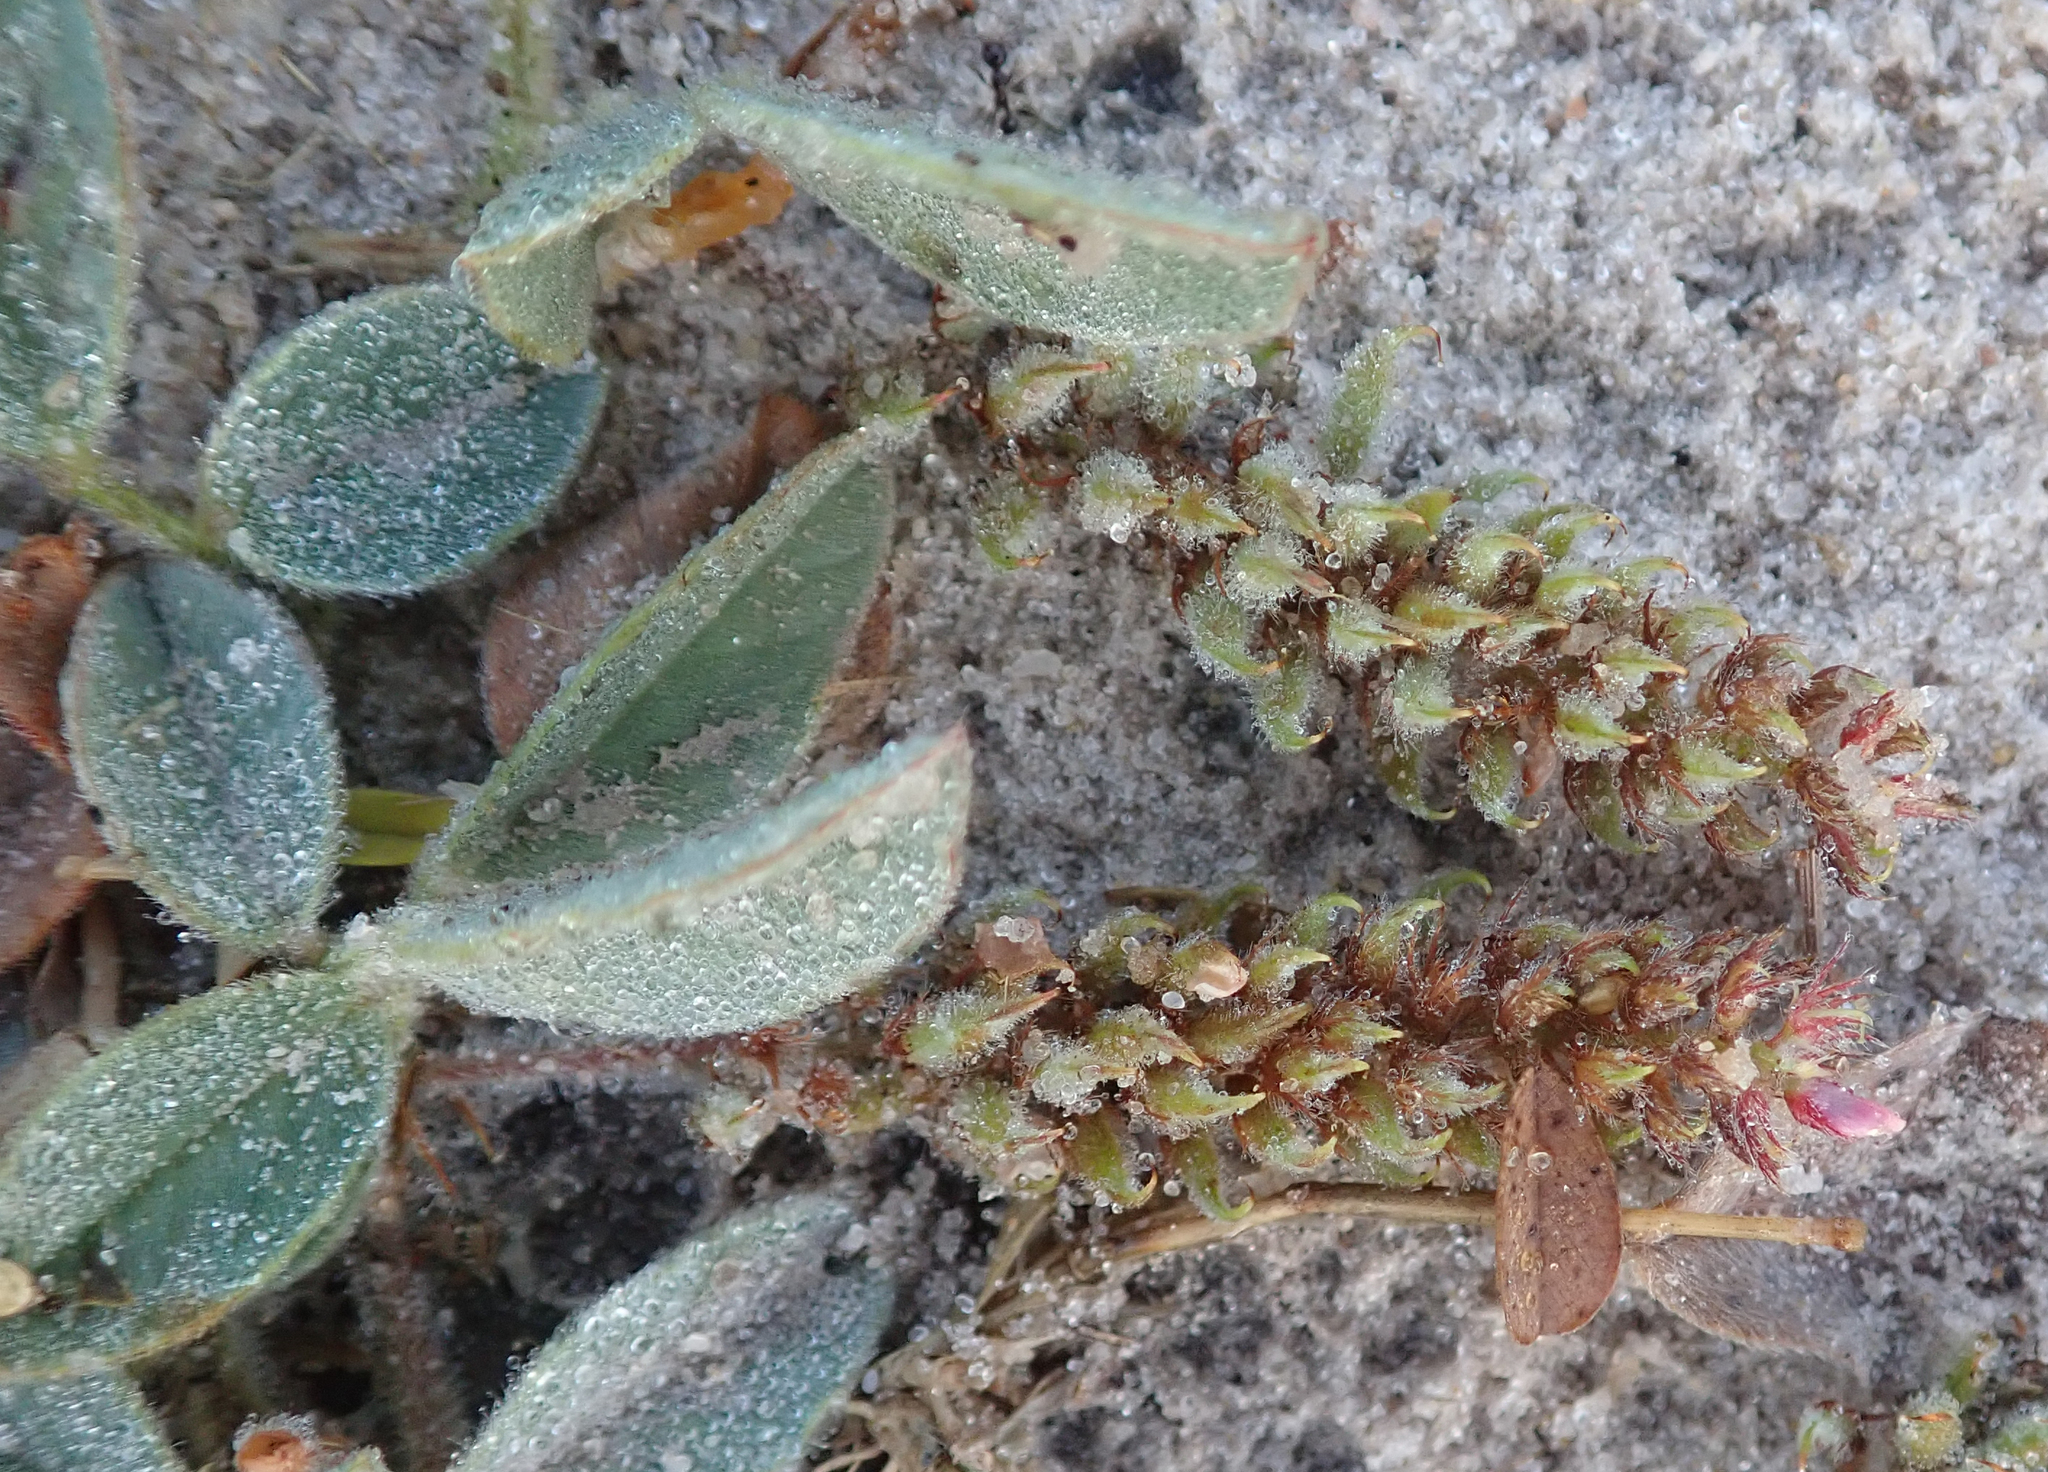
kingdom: Plantae
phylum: Tracheophyta
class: Magnoliopsida
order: Fabales
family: Fabaceae
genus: Indigofera
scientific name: Indigofera flavicans
